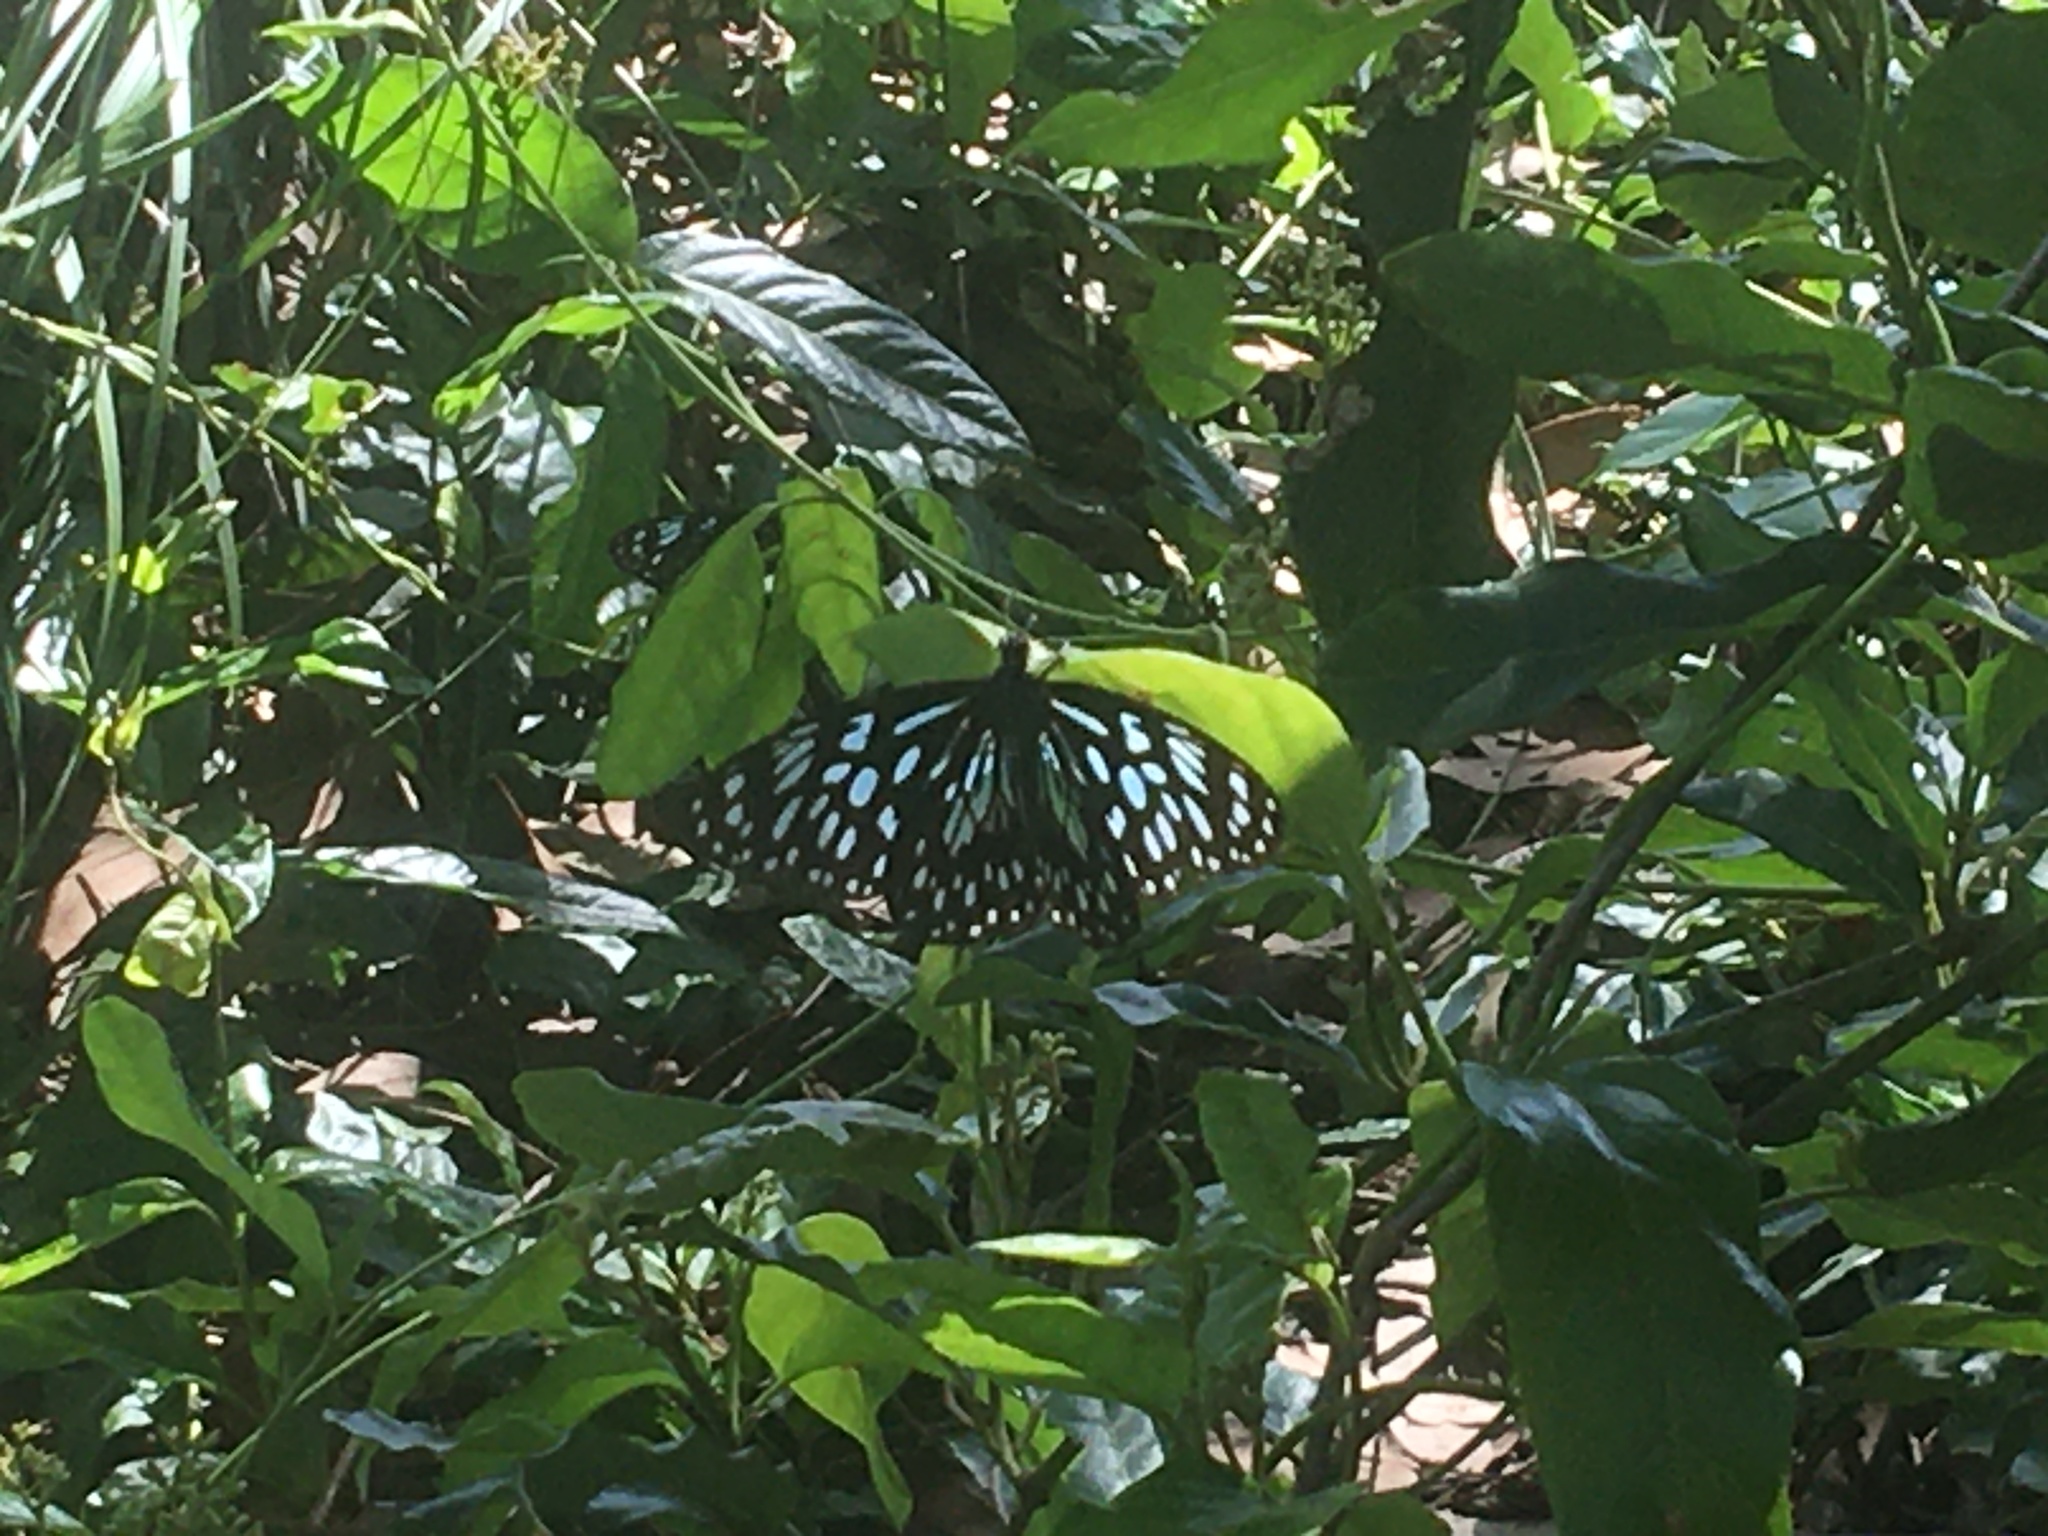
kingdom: Animalia
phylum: Arthropoda
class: Insecta
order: Lepidoptera
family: Nymphalidae
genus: Tirumala
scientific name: Tirumala hamata
